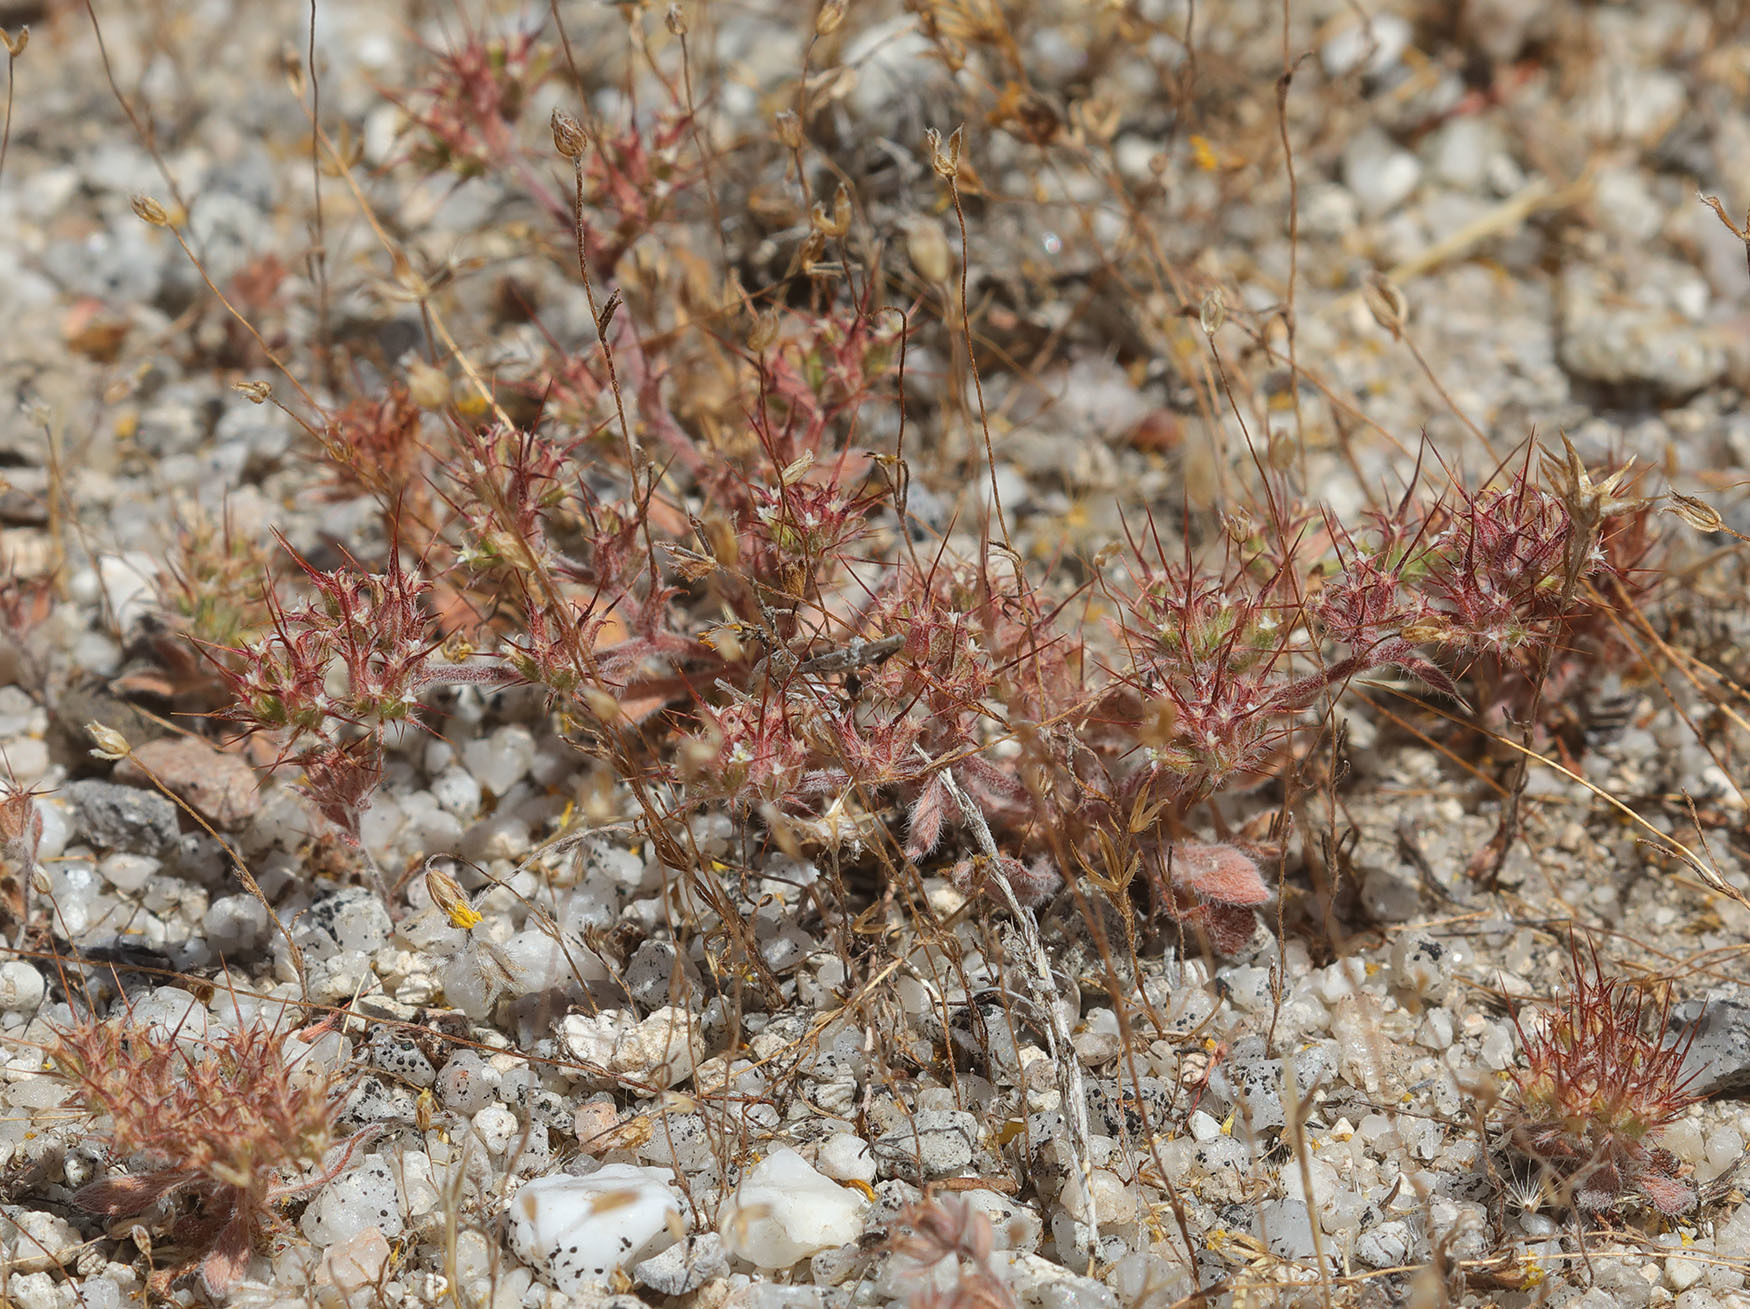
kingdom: Plantae
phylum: Tracheophyta
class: Magnoliopsida
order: Caryophyllales
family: Polygonaceae
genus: Chorizanthe
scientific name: Chorizanthe uniaristata
